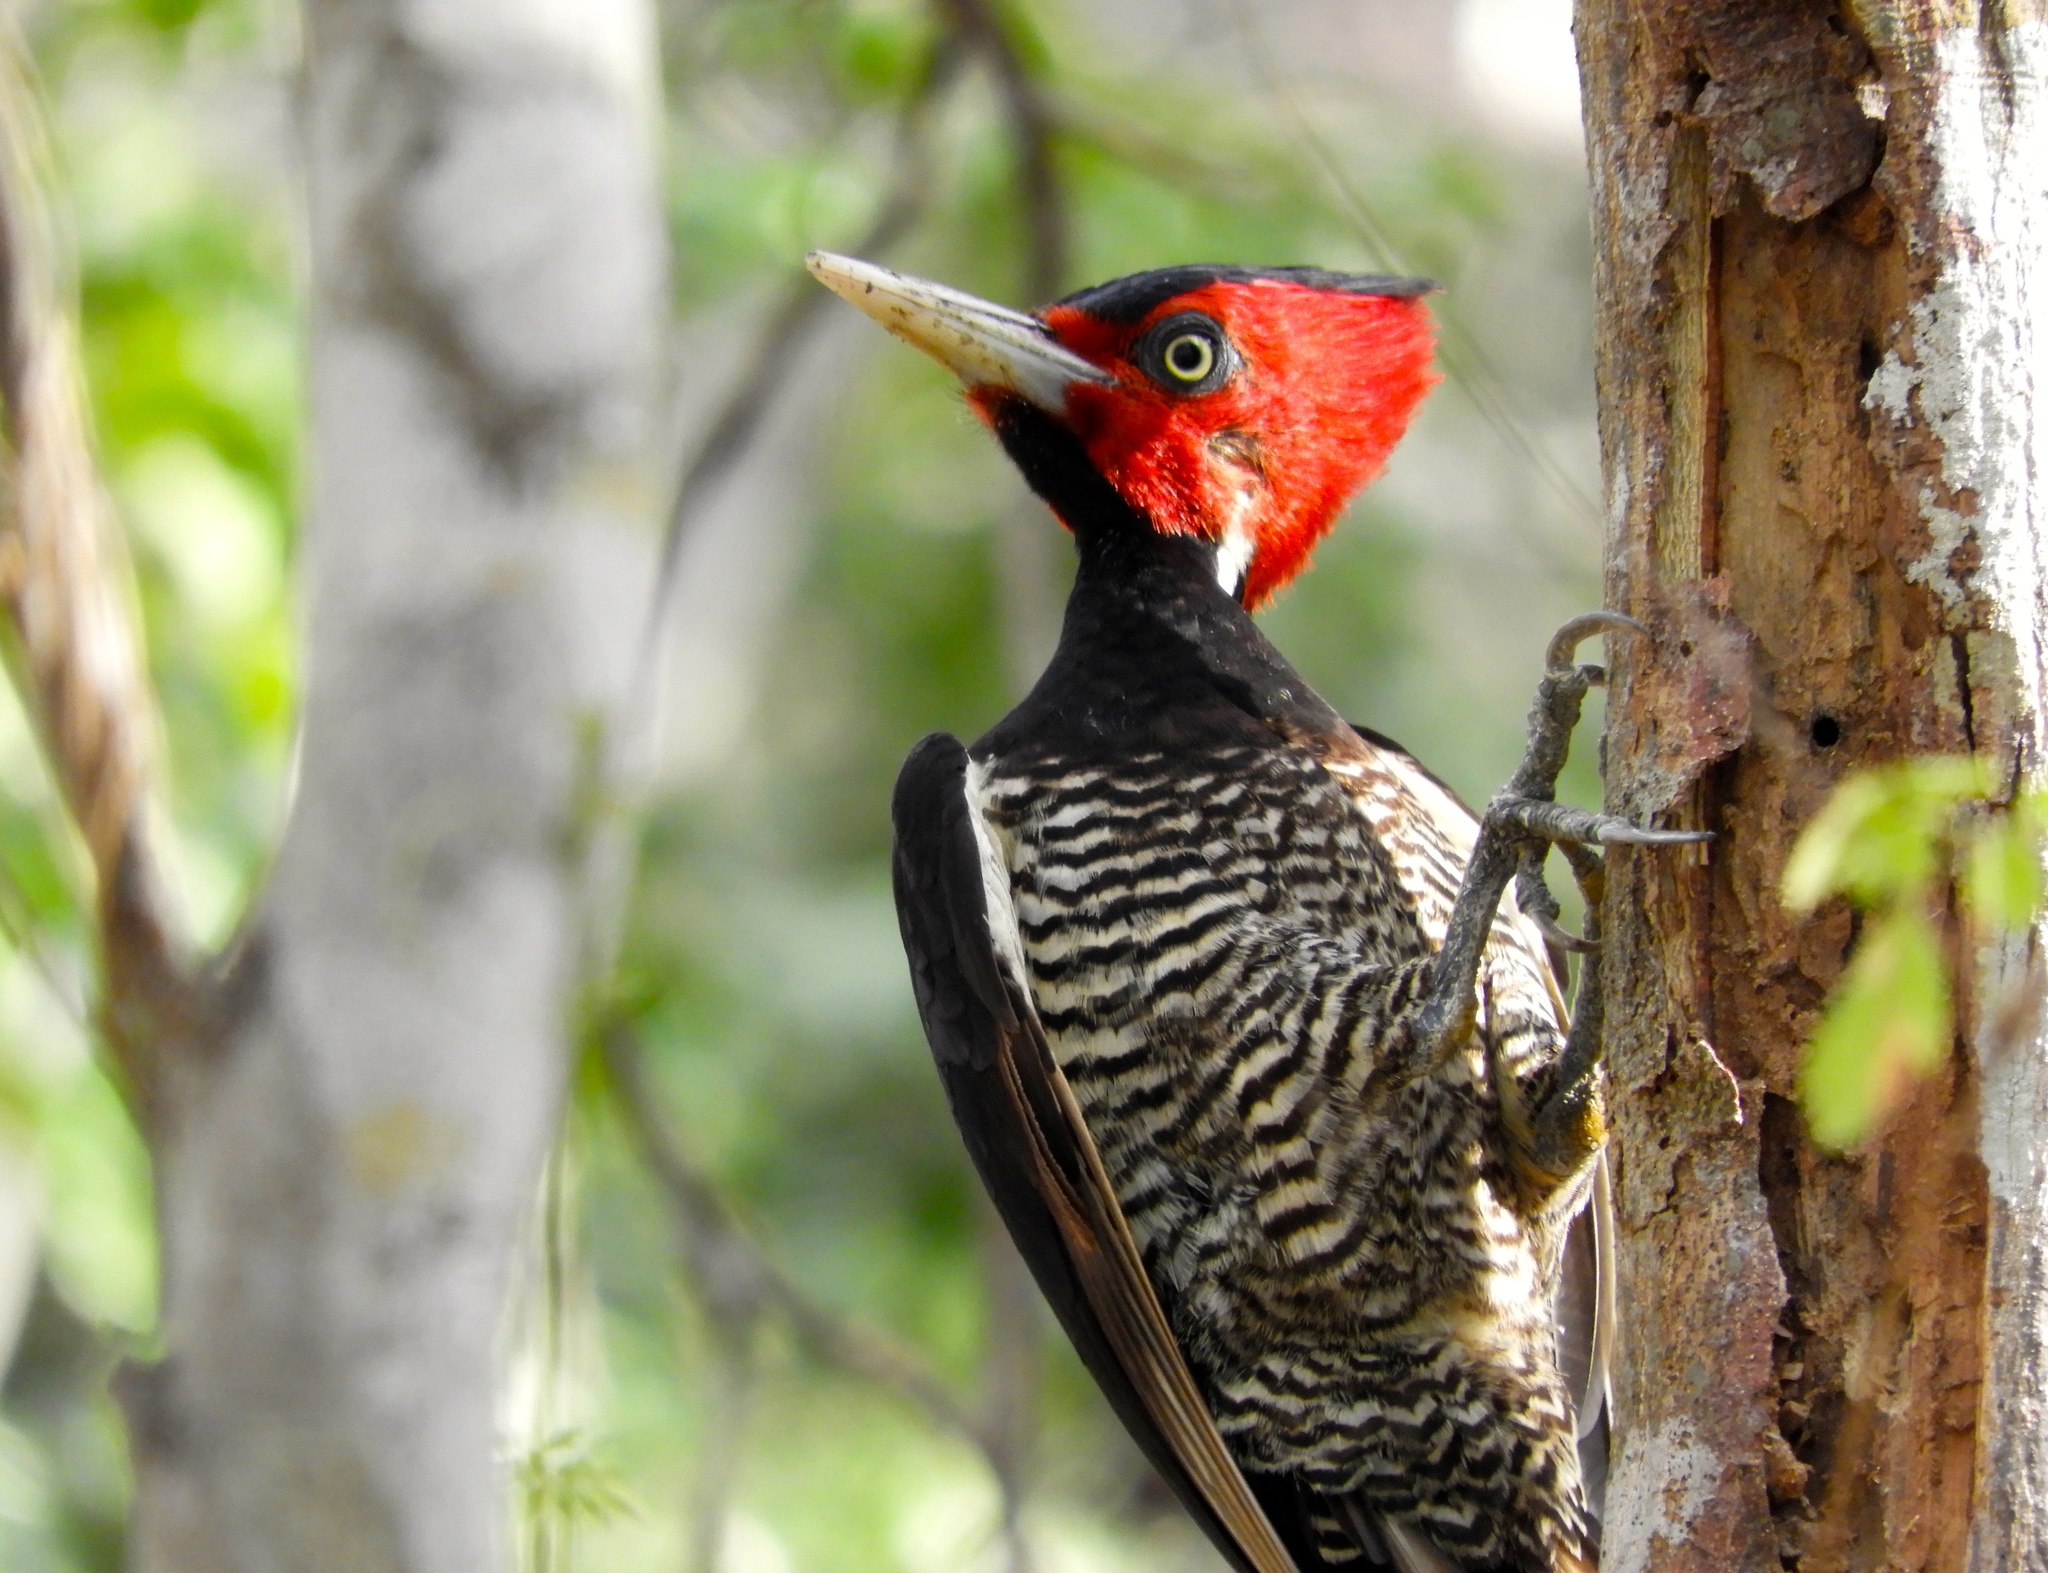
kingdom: Animalia
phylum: Chordata
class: Aves
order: Piciformes
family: Picidae
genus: Campephilus
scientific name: Campephilus guatemalensis
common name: Pale-billed woodpecker
